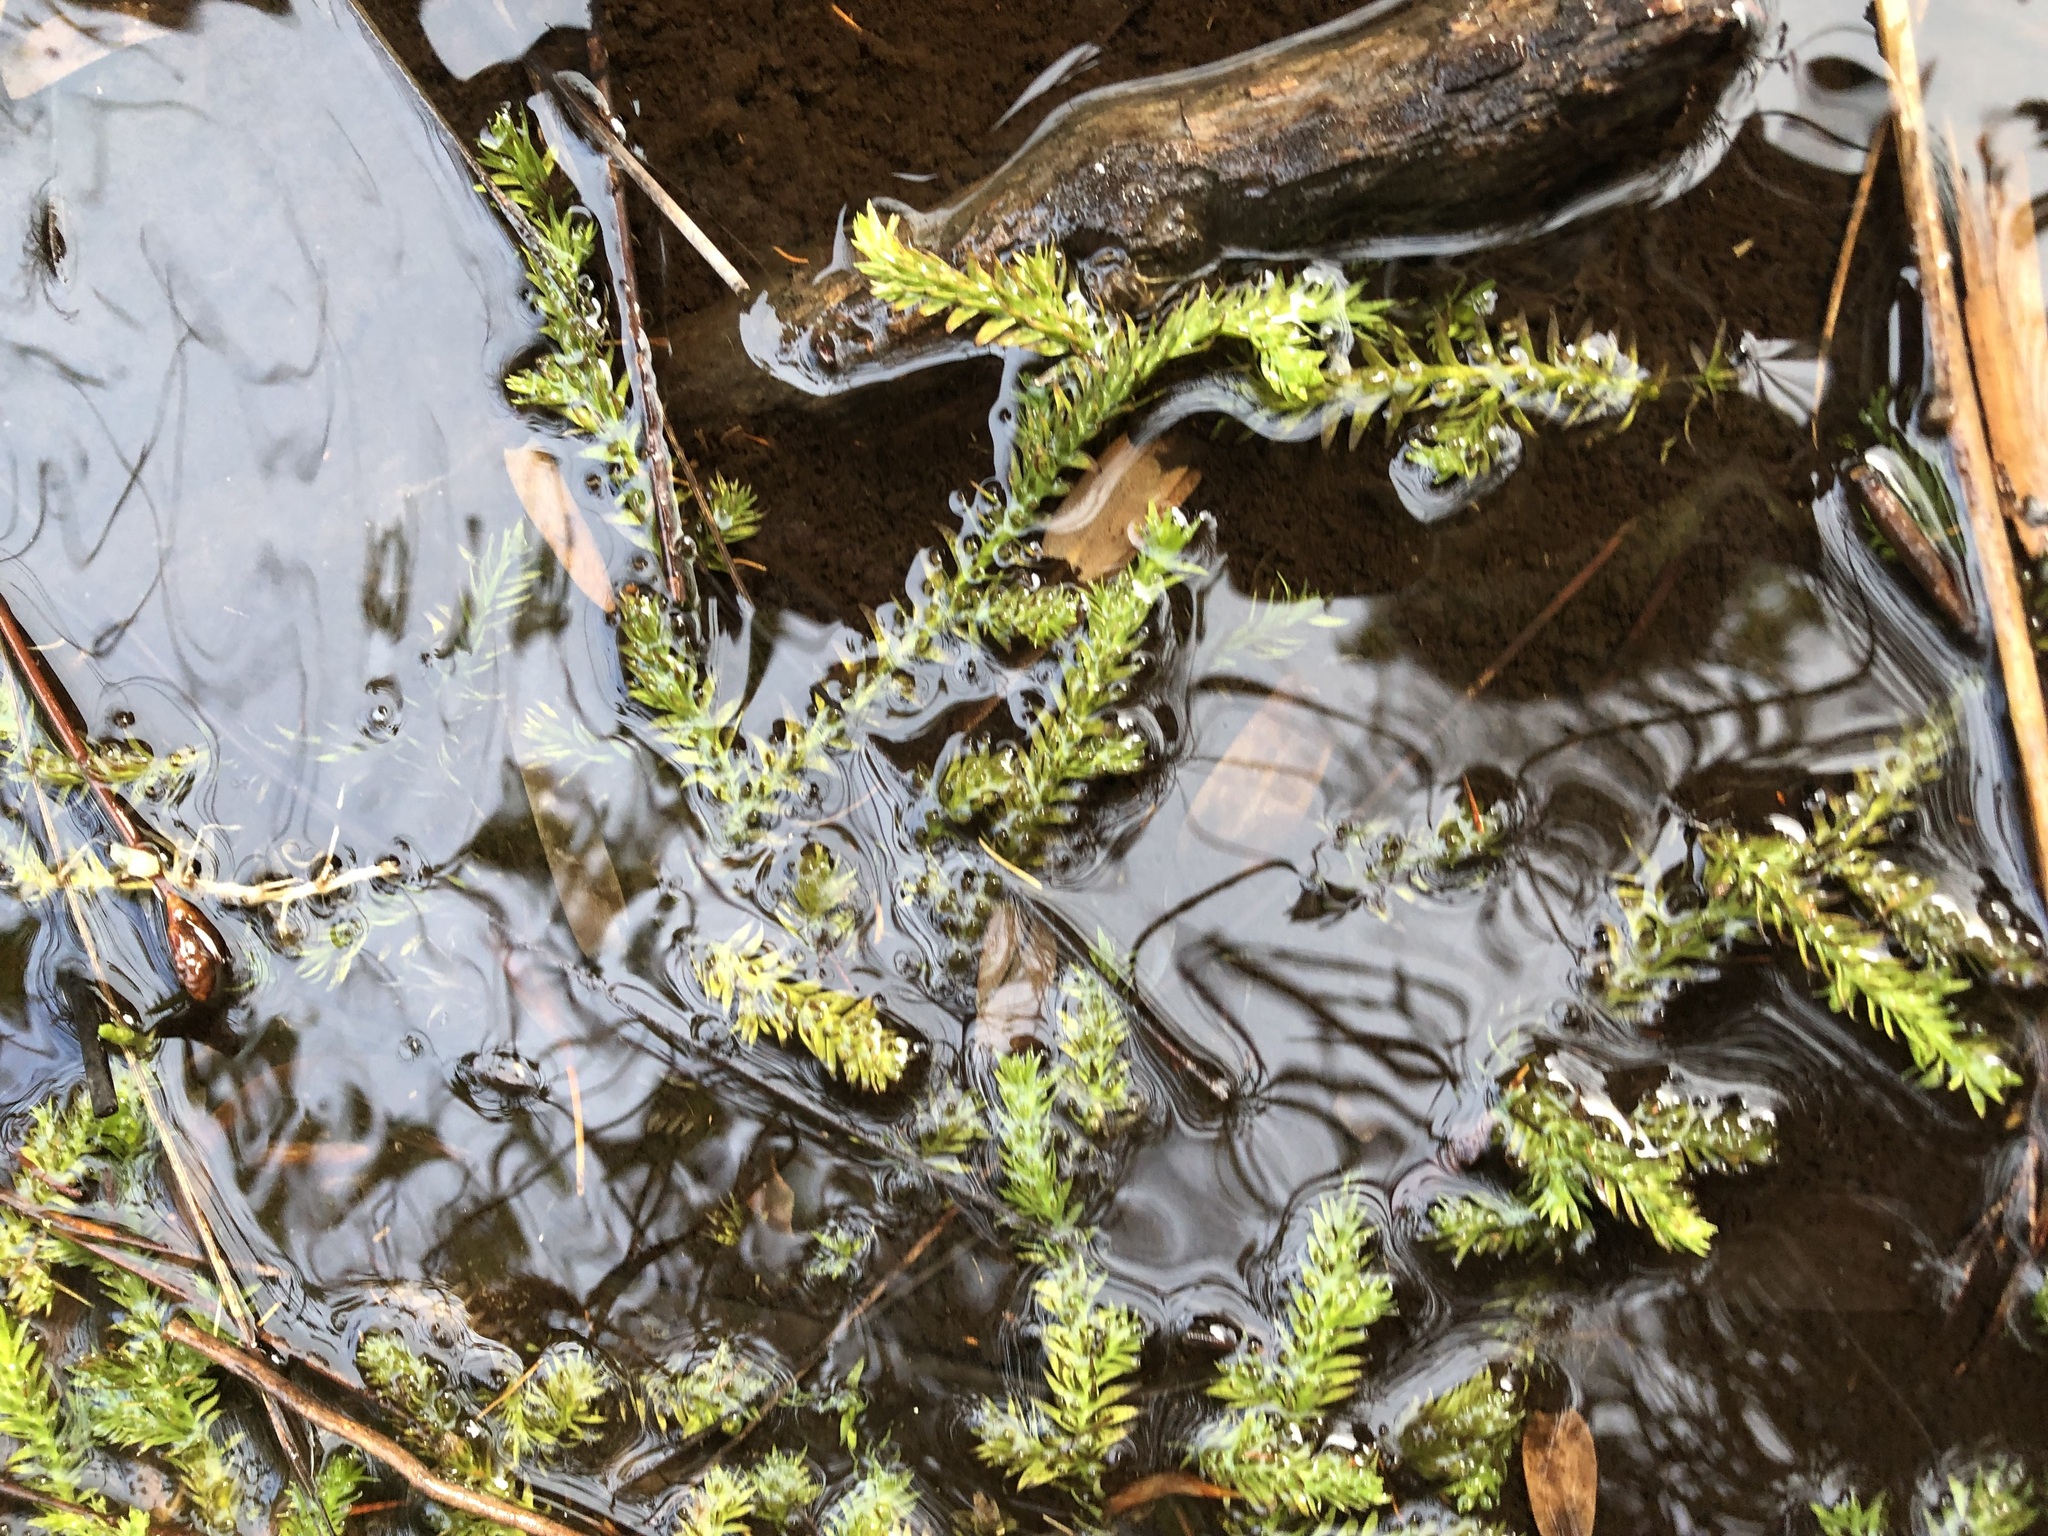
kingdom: Plantae
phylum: Tracheophyta
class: Lycopodiopsida
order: Lycopodiales
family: Lycopodiaceae
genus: Pseudolycopodiella
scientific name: Pseudolycopodiella caroliniana
